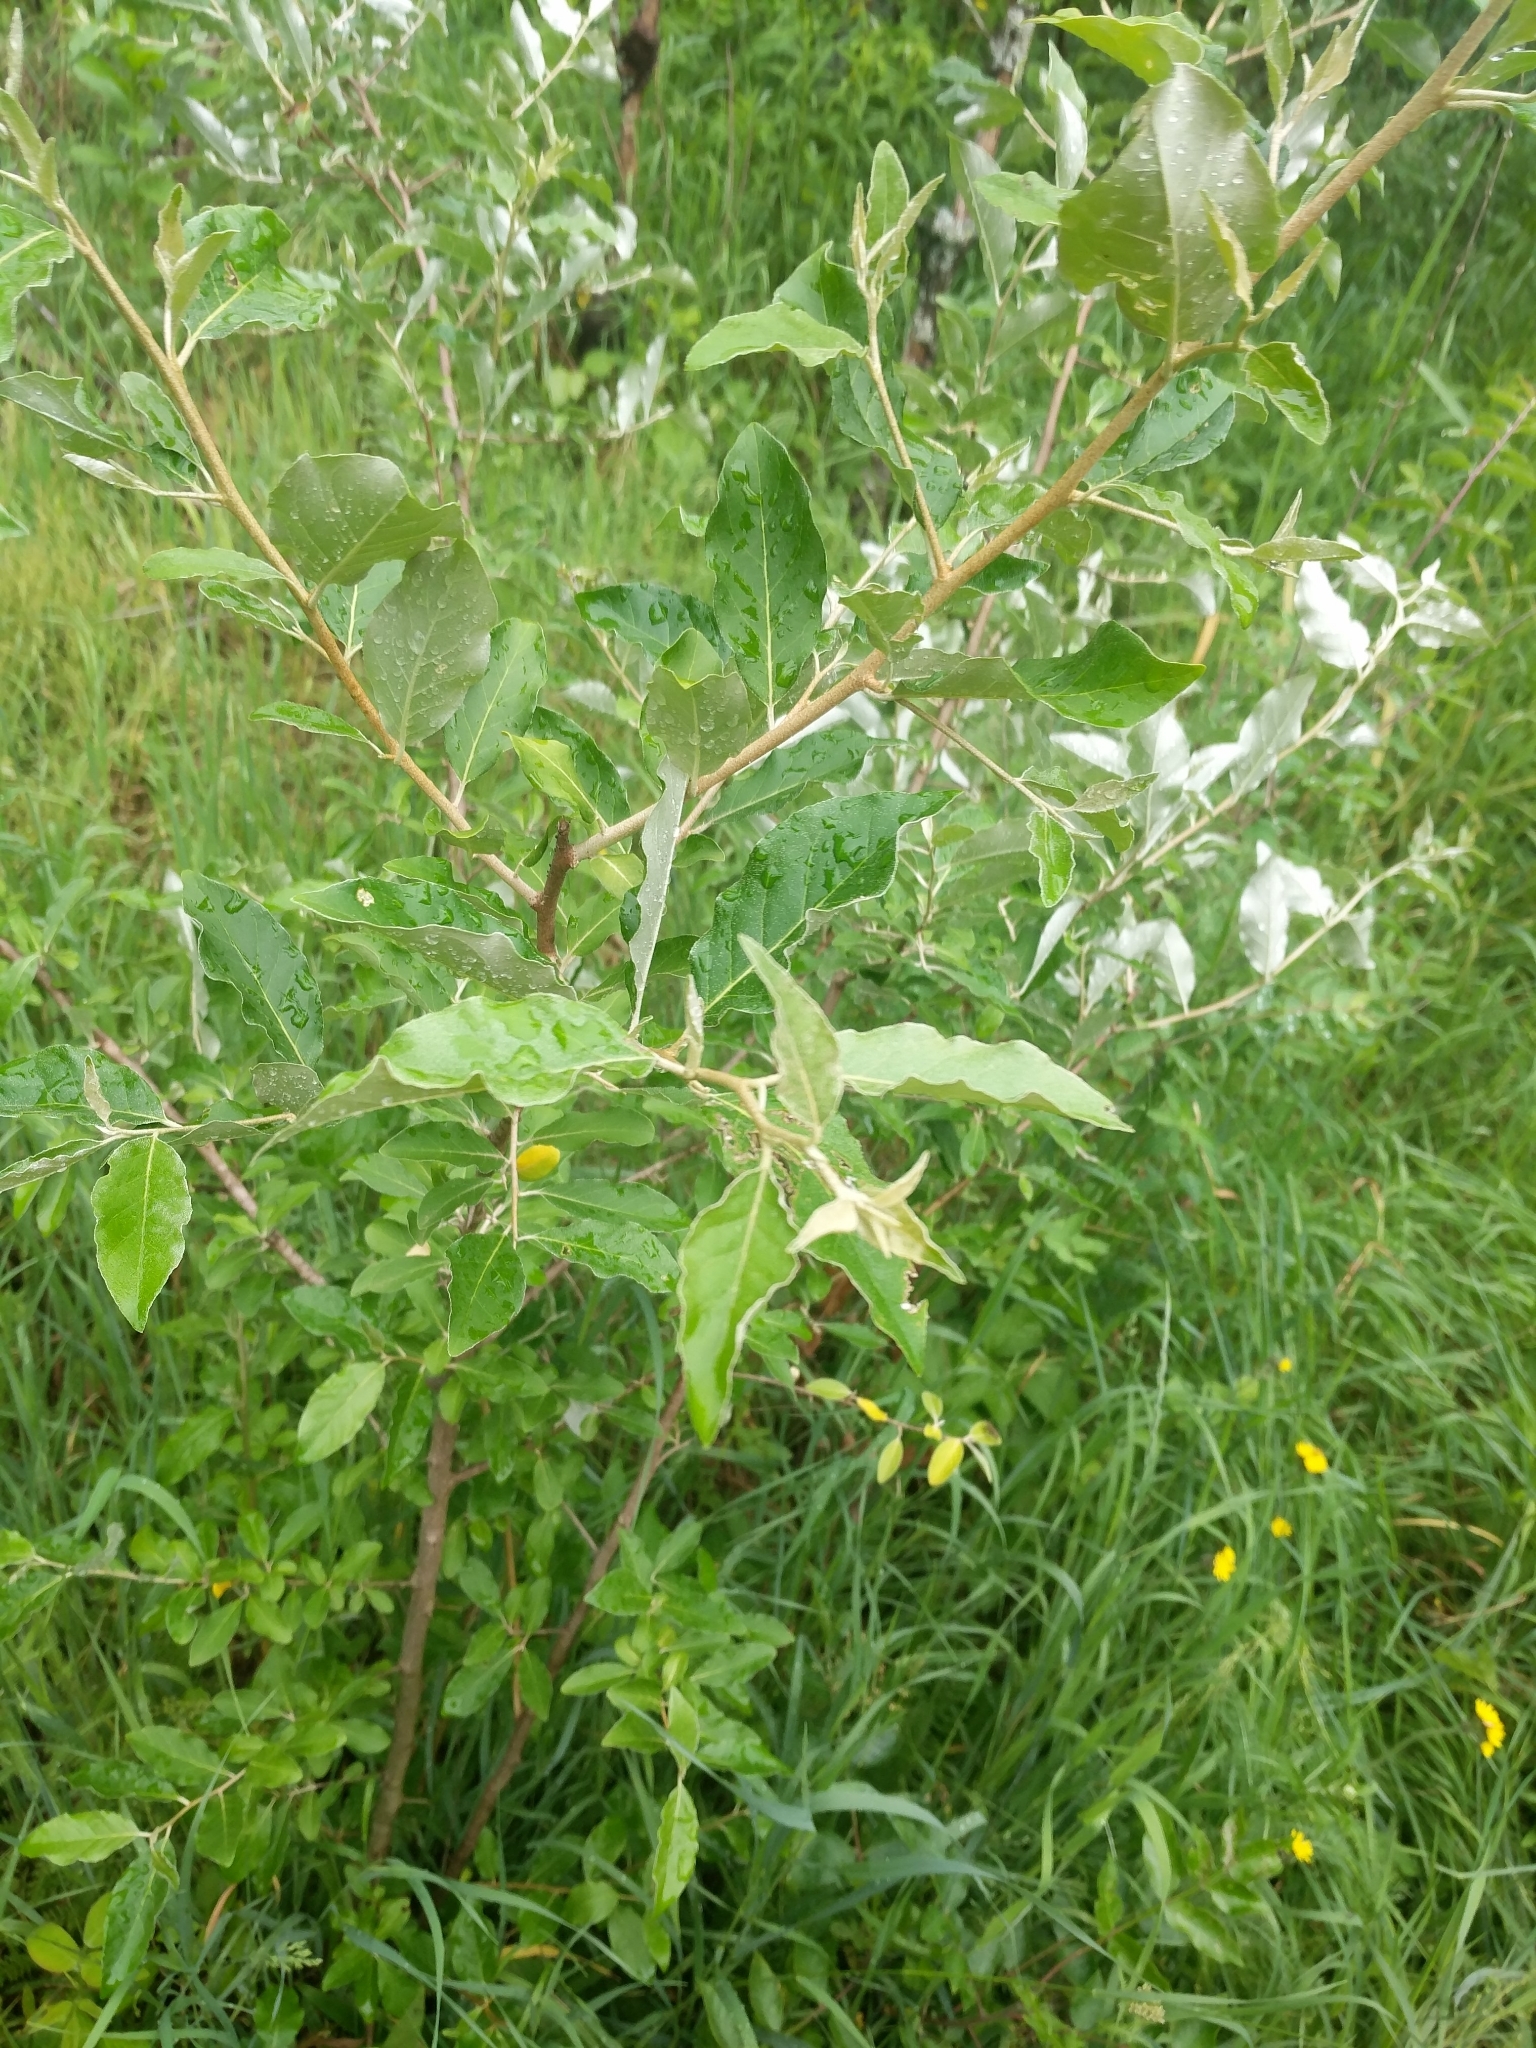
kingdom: Plantae
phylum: Tracheophyta
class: Magnoliopsida
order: Rosales
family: Elaeagnaceae
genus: Elaeagnus
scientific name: Elaeagnus umbellata
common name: Autumn olive
